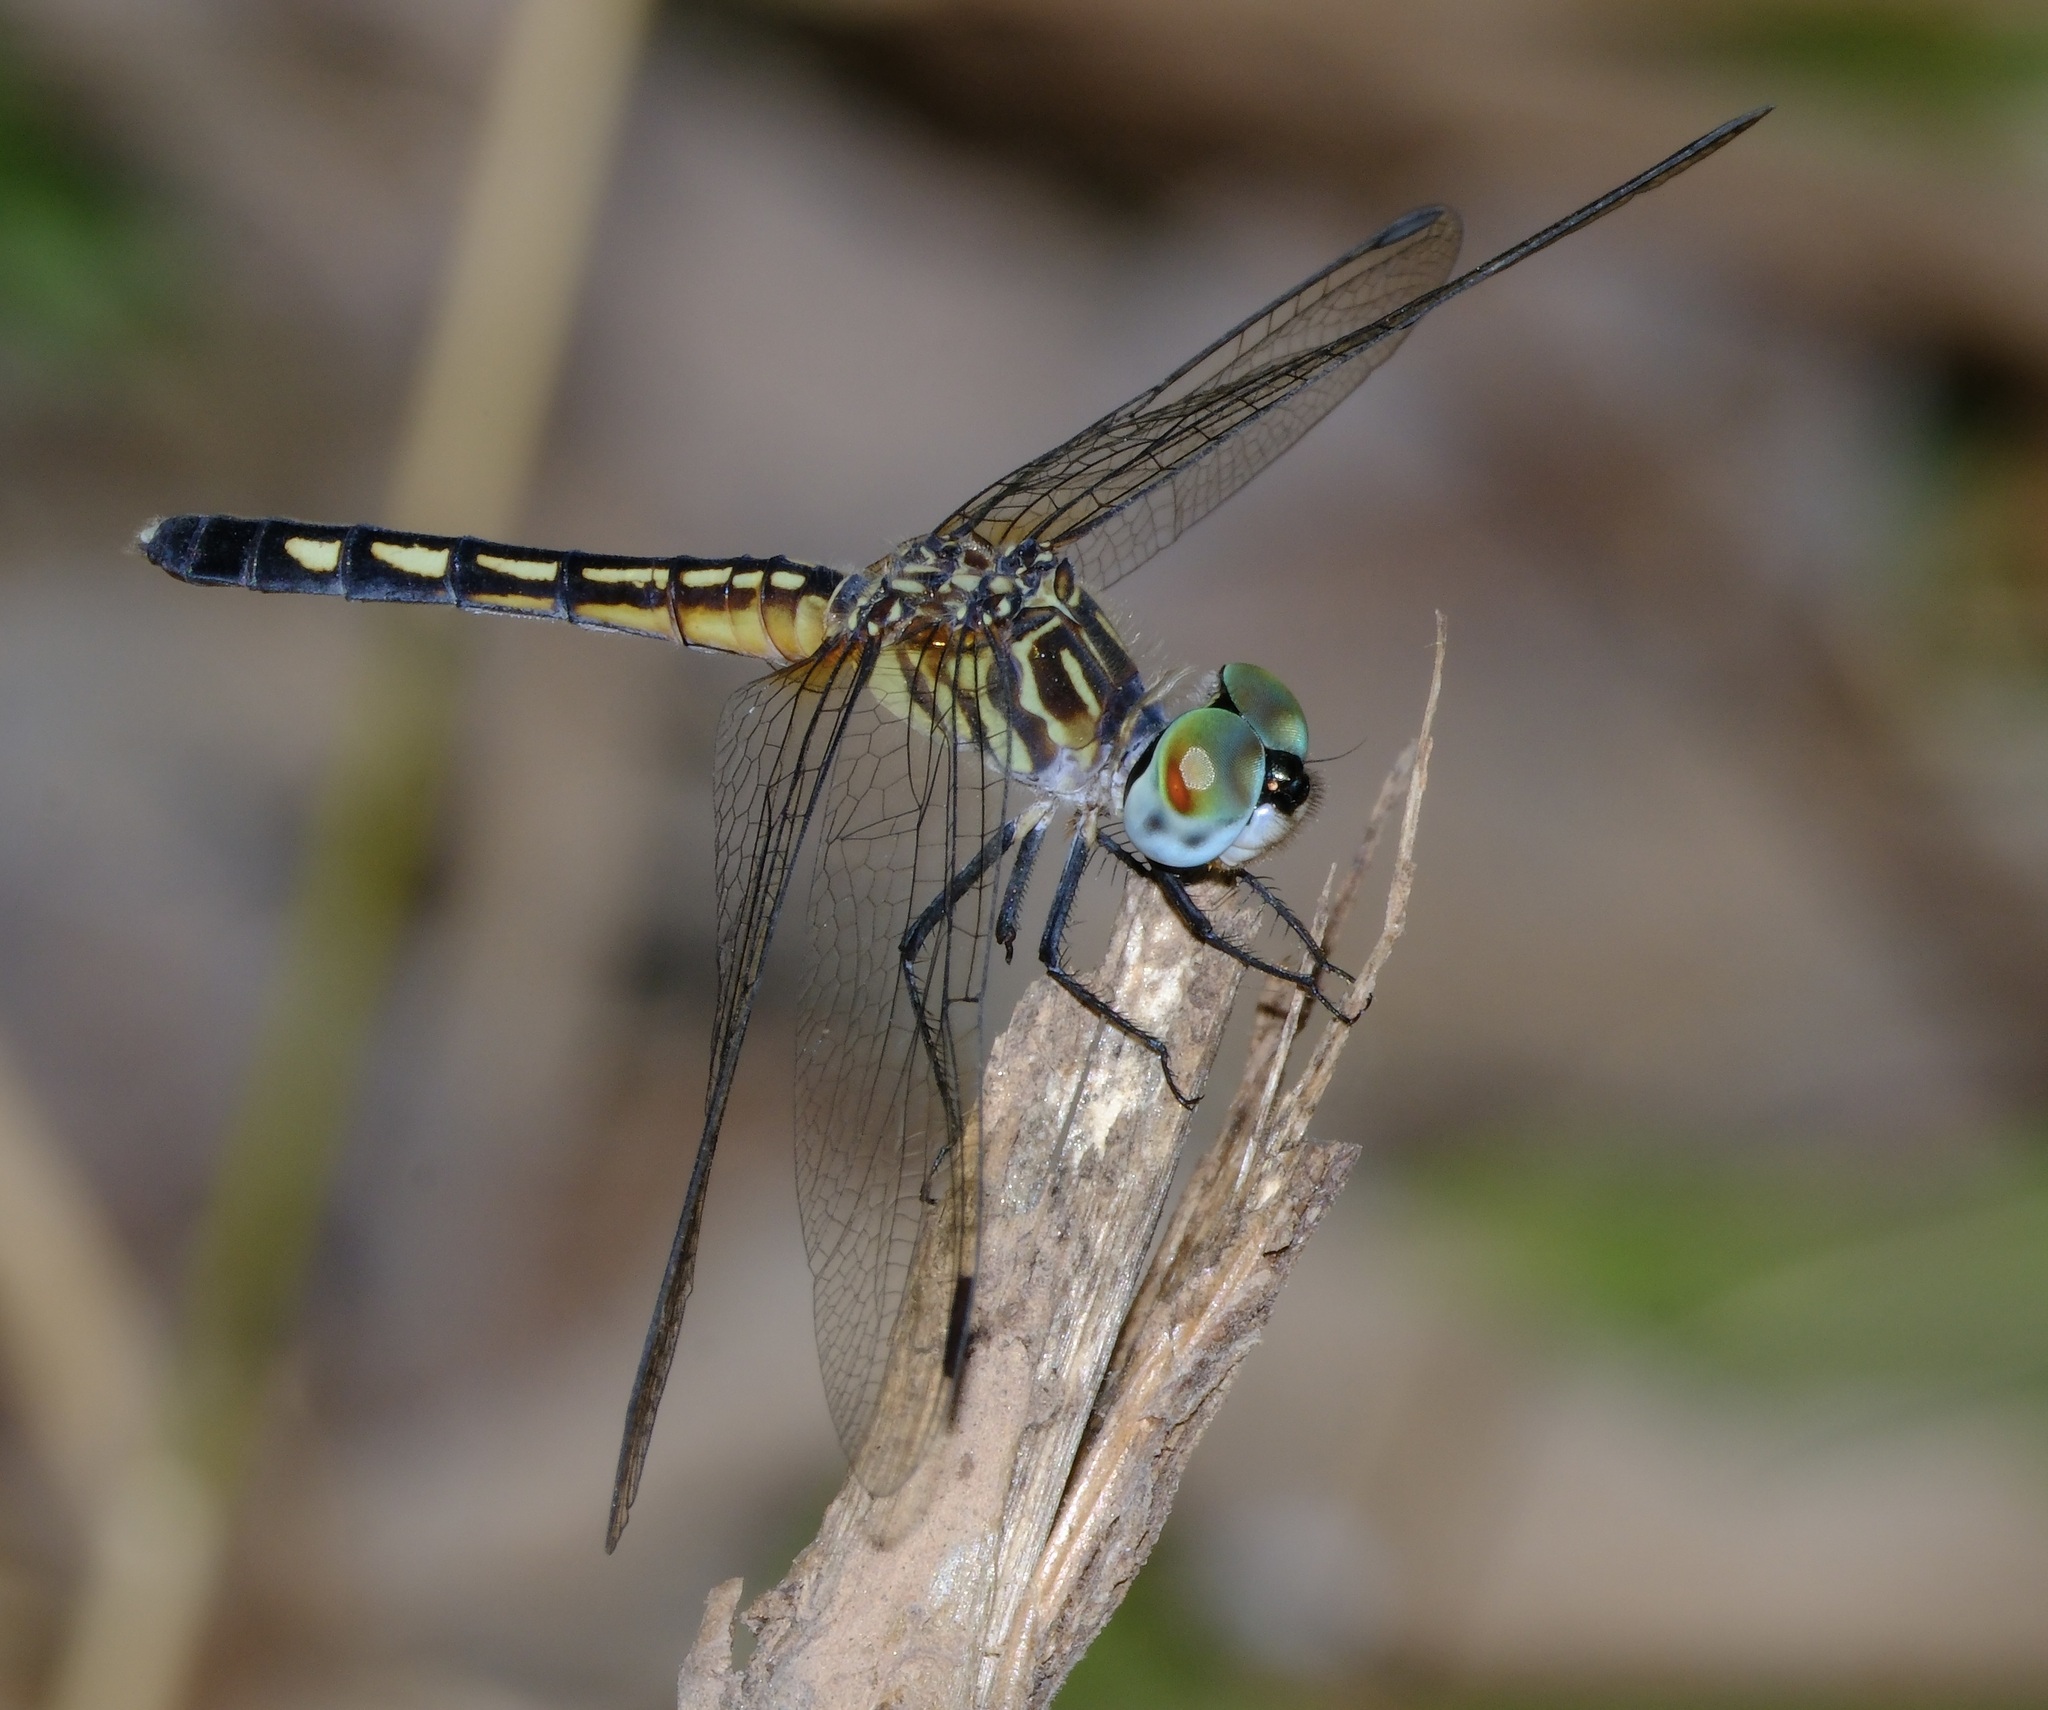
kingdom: Animalia
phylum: Arthropoda
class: Insecta
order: Odonata
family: Libellulidae
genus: Pachydiplax
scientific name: Pachydiplax longipennis
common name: Blue dasher
